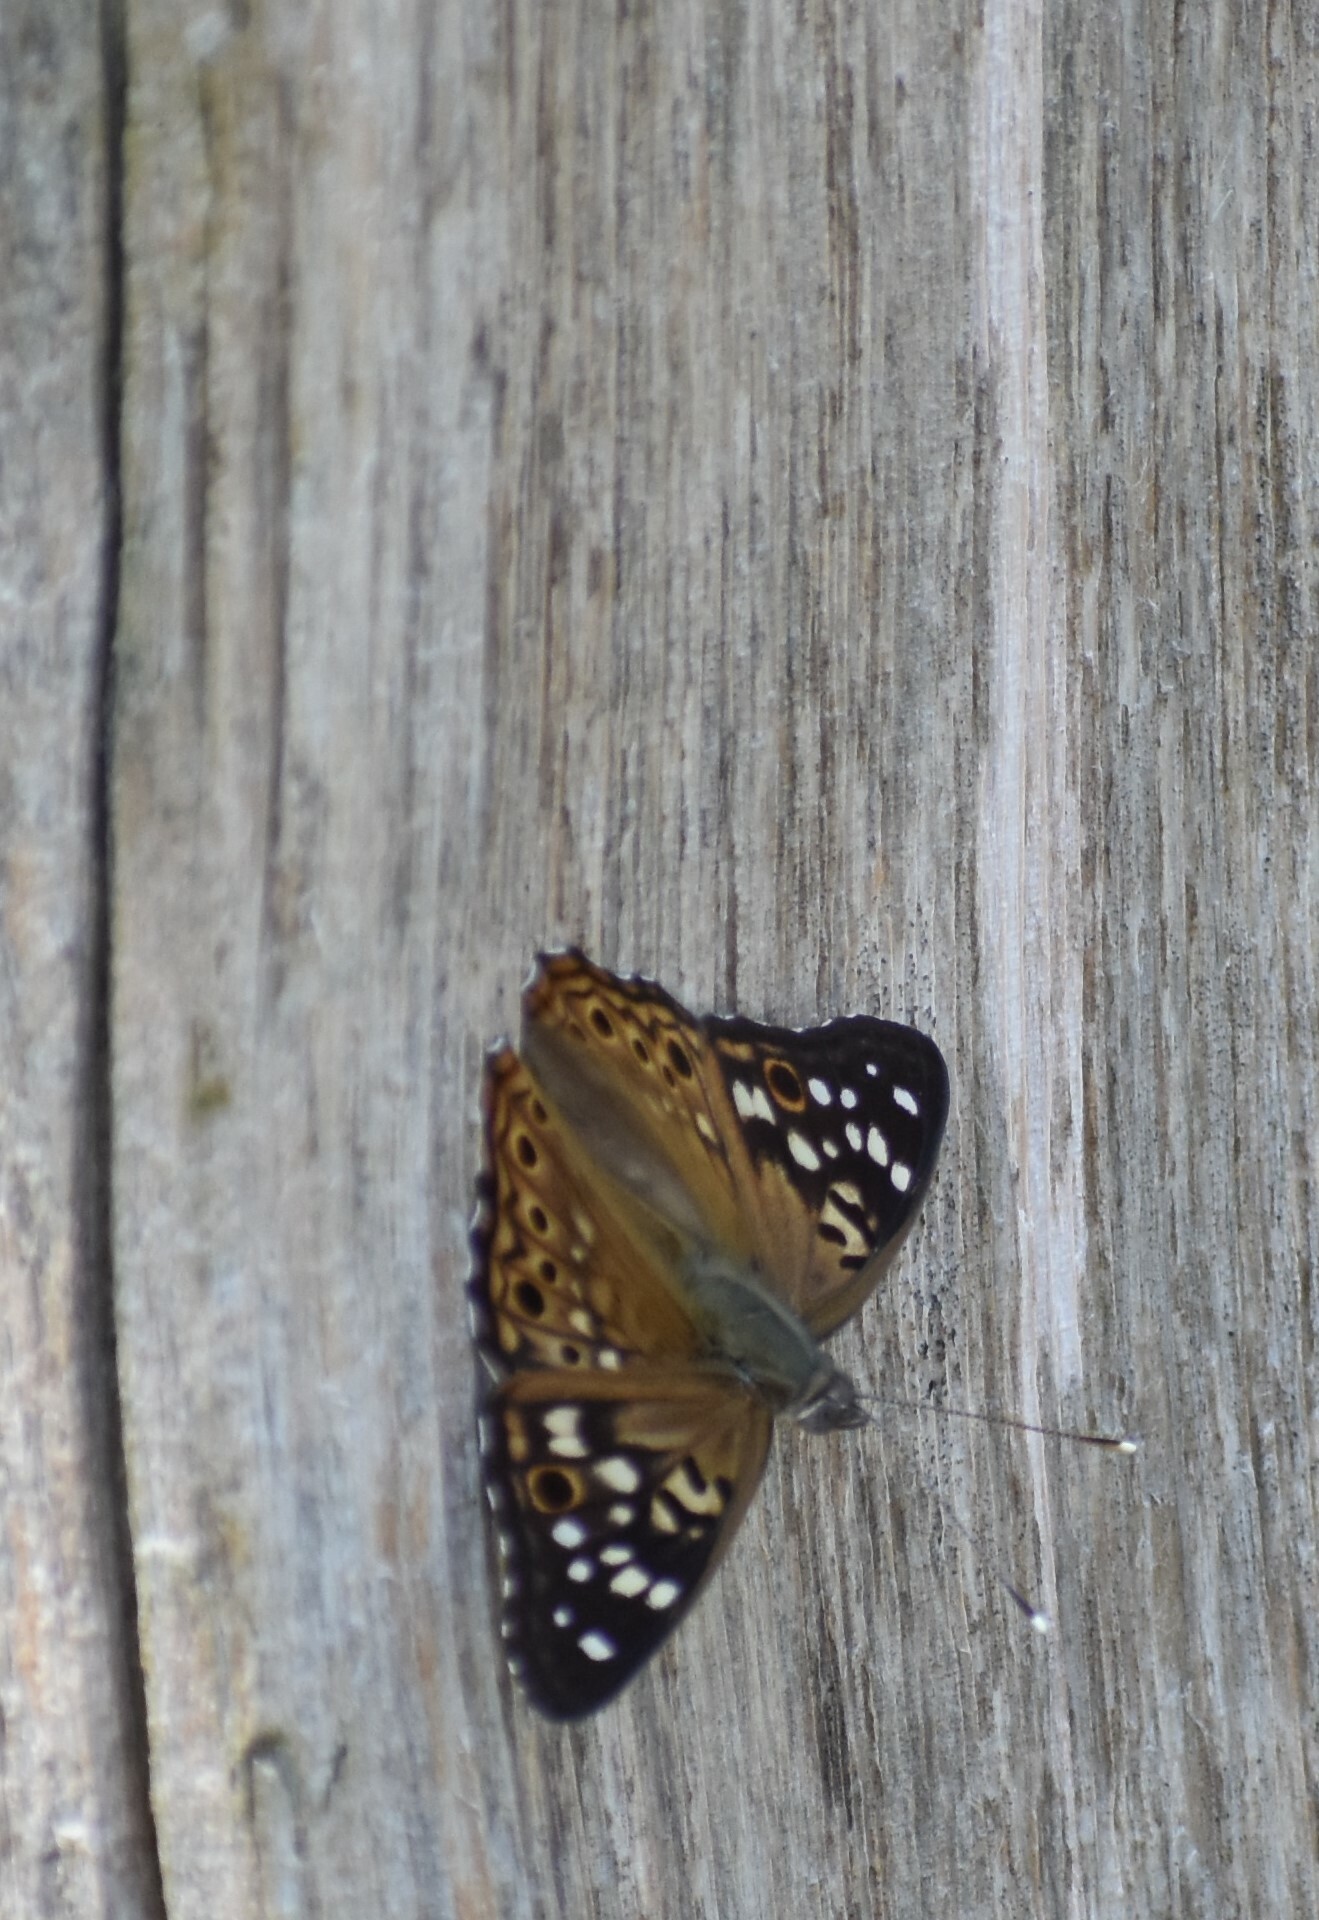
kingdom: Animalia
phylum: Arthropoda
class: Insecta
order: Lepidoptera
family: Nymphalidae
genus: Asterocampa
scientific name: Asterocampa celtis
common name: Hackberry emperor
